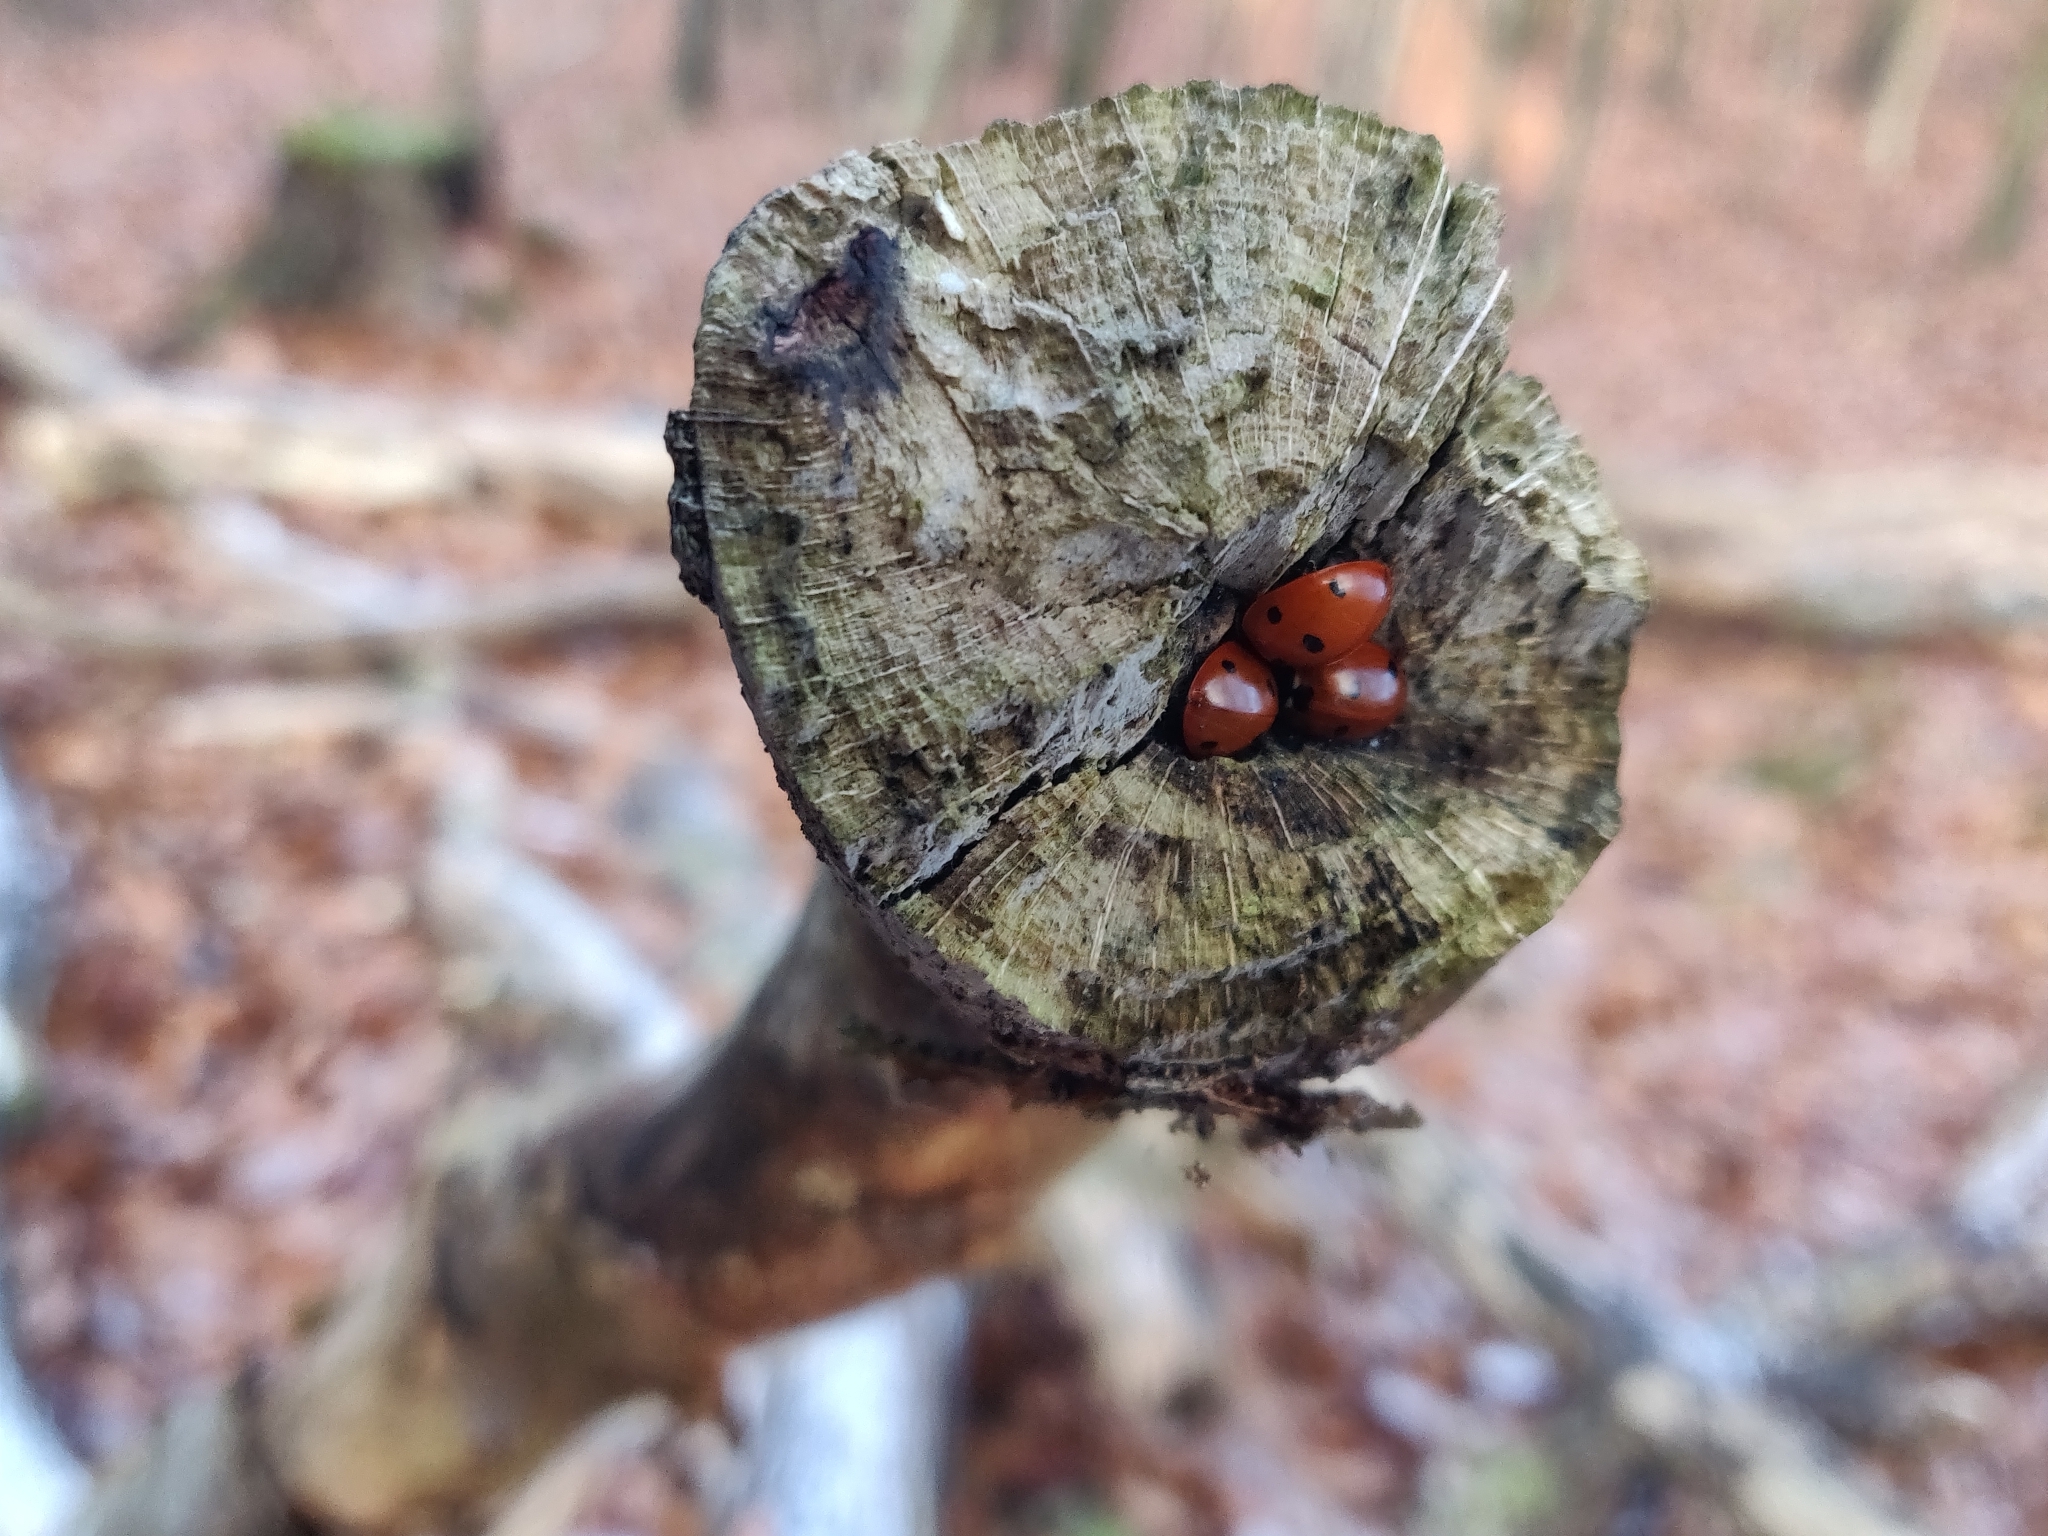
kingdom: Animalia
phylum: Arthropoda
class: Insecta
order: Coleoptera
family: Coccinellidae
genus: Coccinella
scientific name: Coccinella septempunctata
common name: Sevenspotted lady beetle
